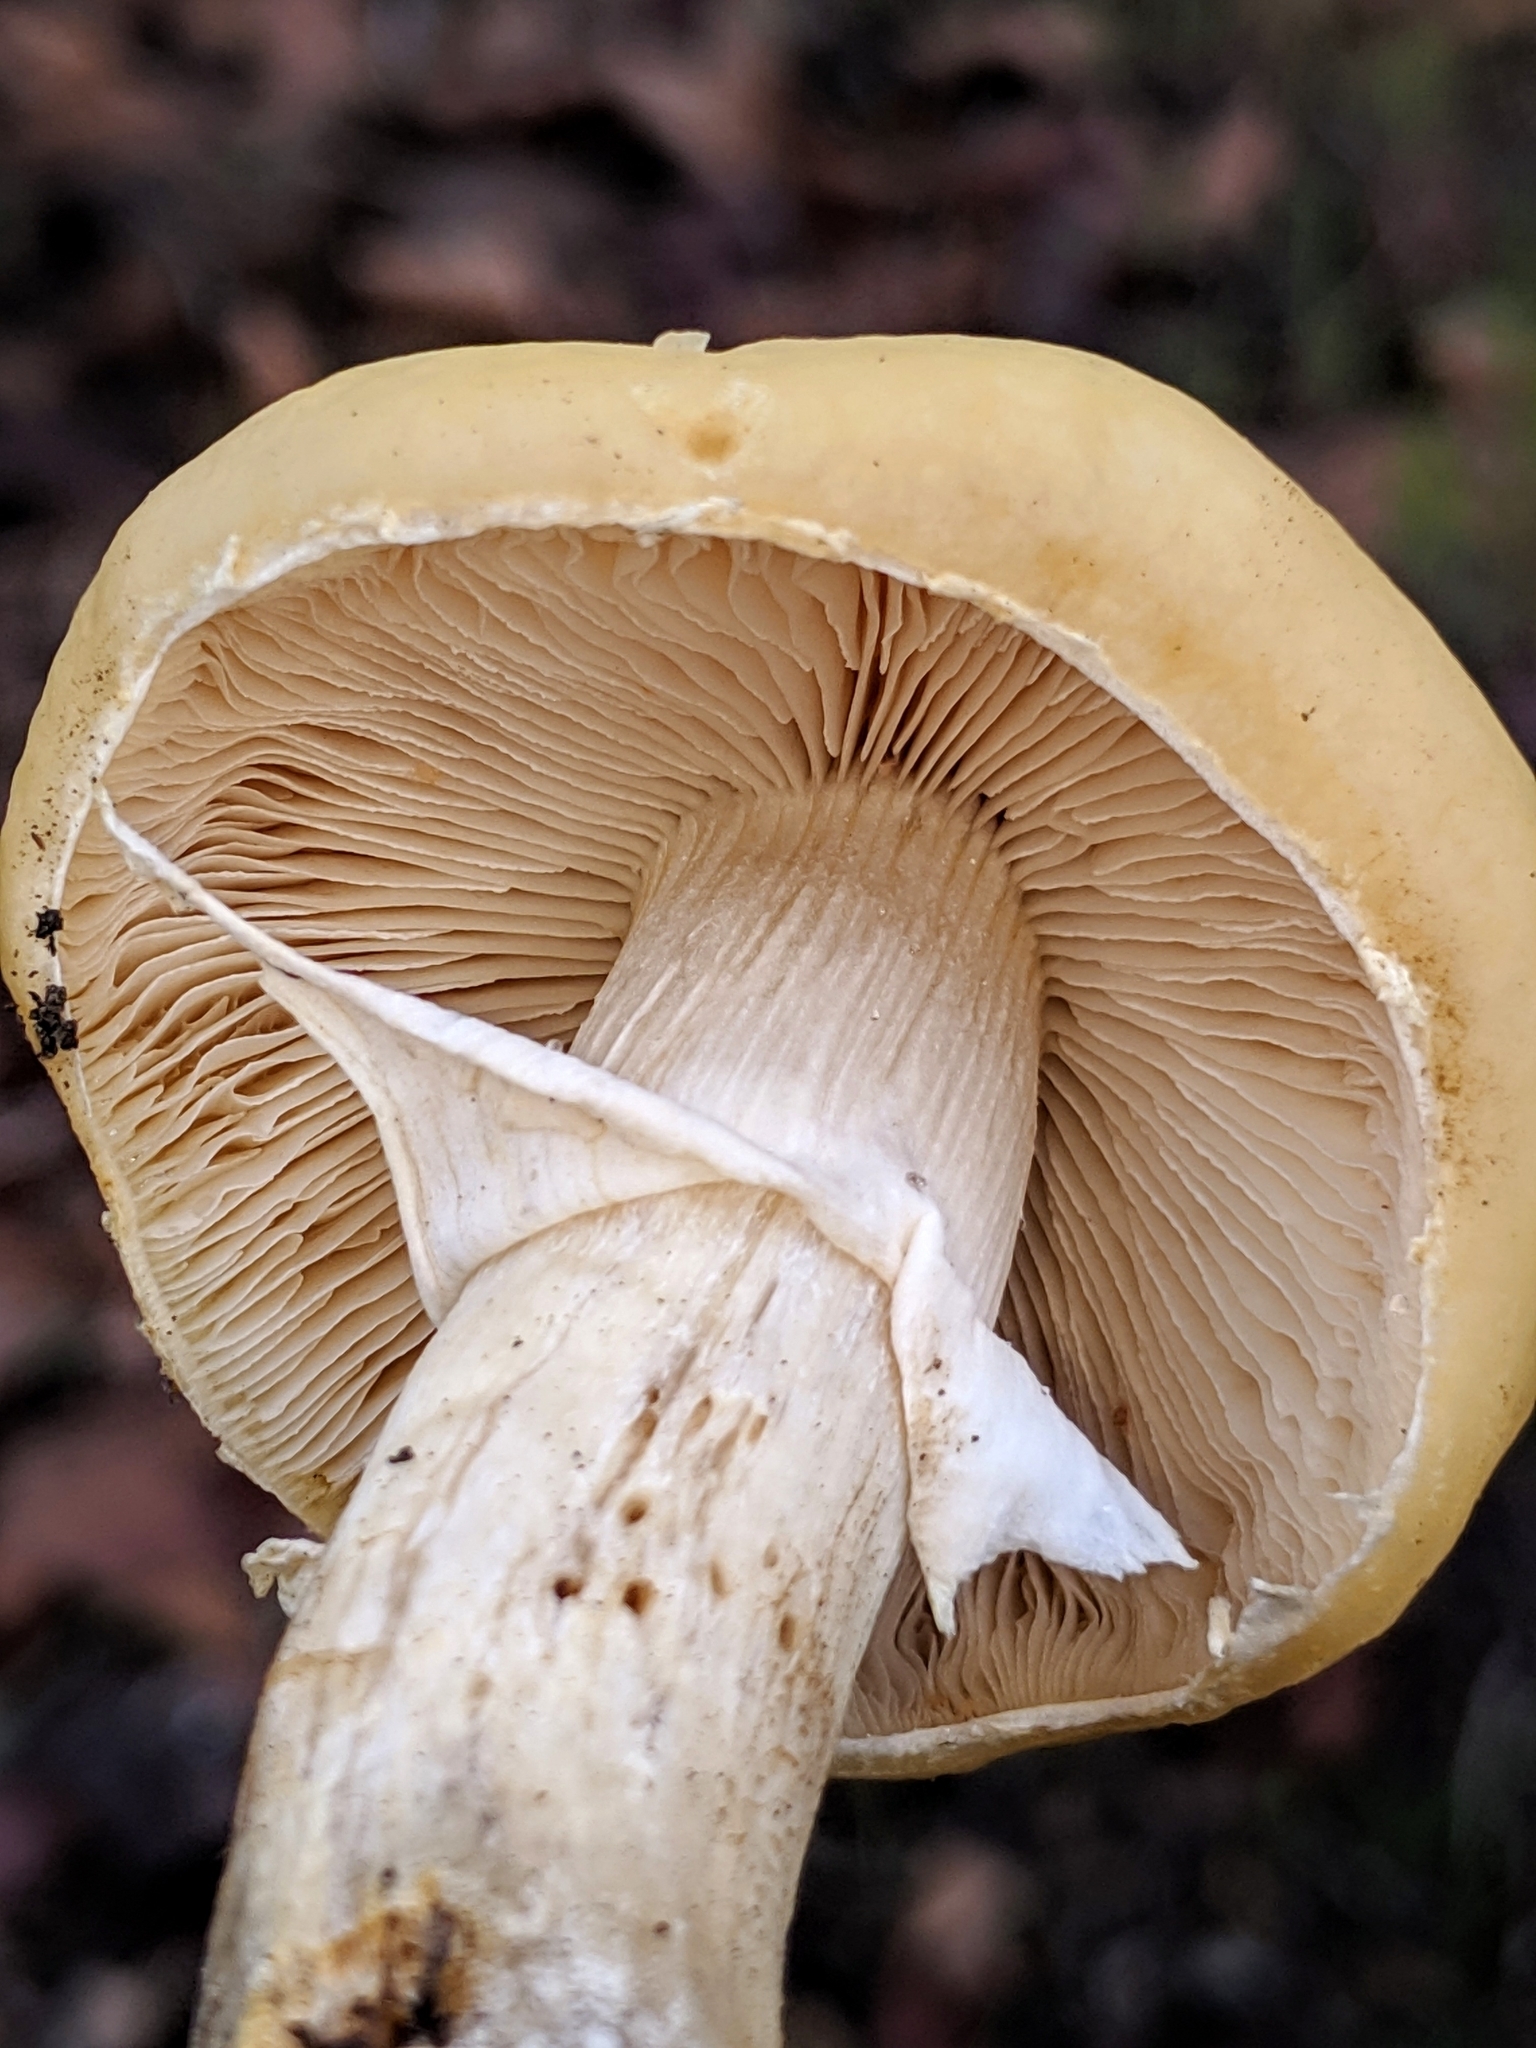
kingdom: Fungi
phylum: Basidiomycota
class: Agaricomycetes
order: Agaricales
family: Strophariaceae
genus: Agrocybe
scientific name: Agrocybe praecox
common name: Spring fieldcap
